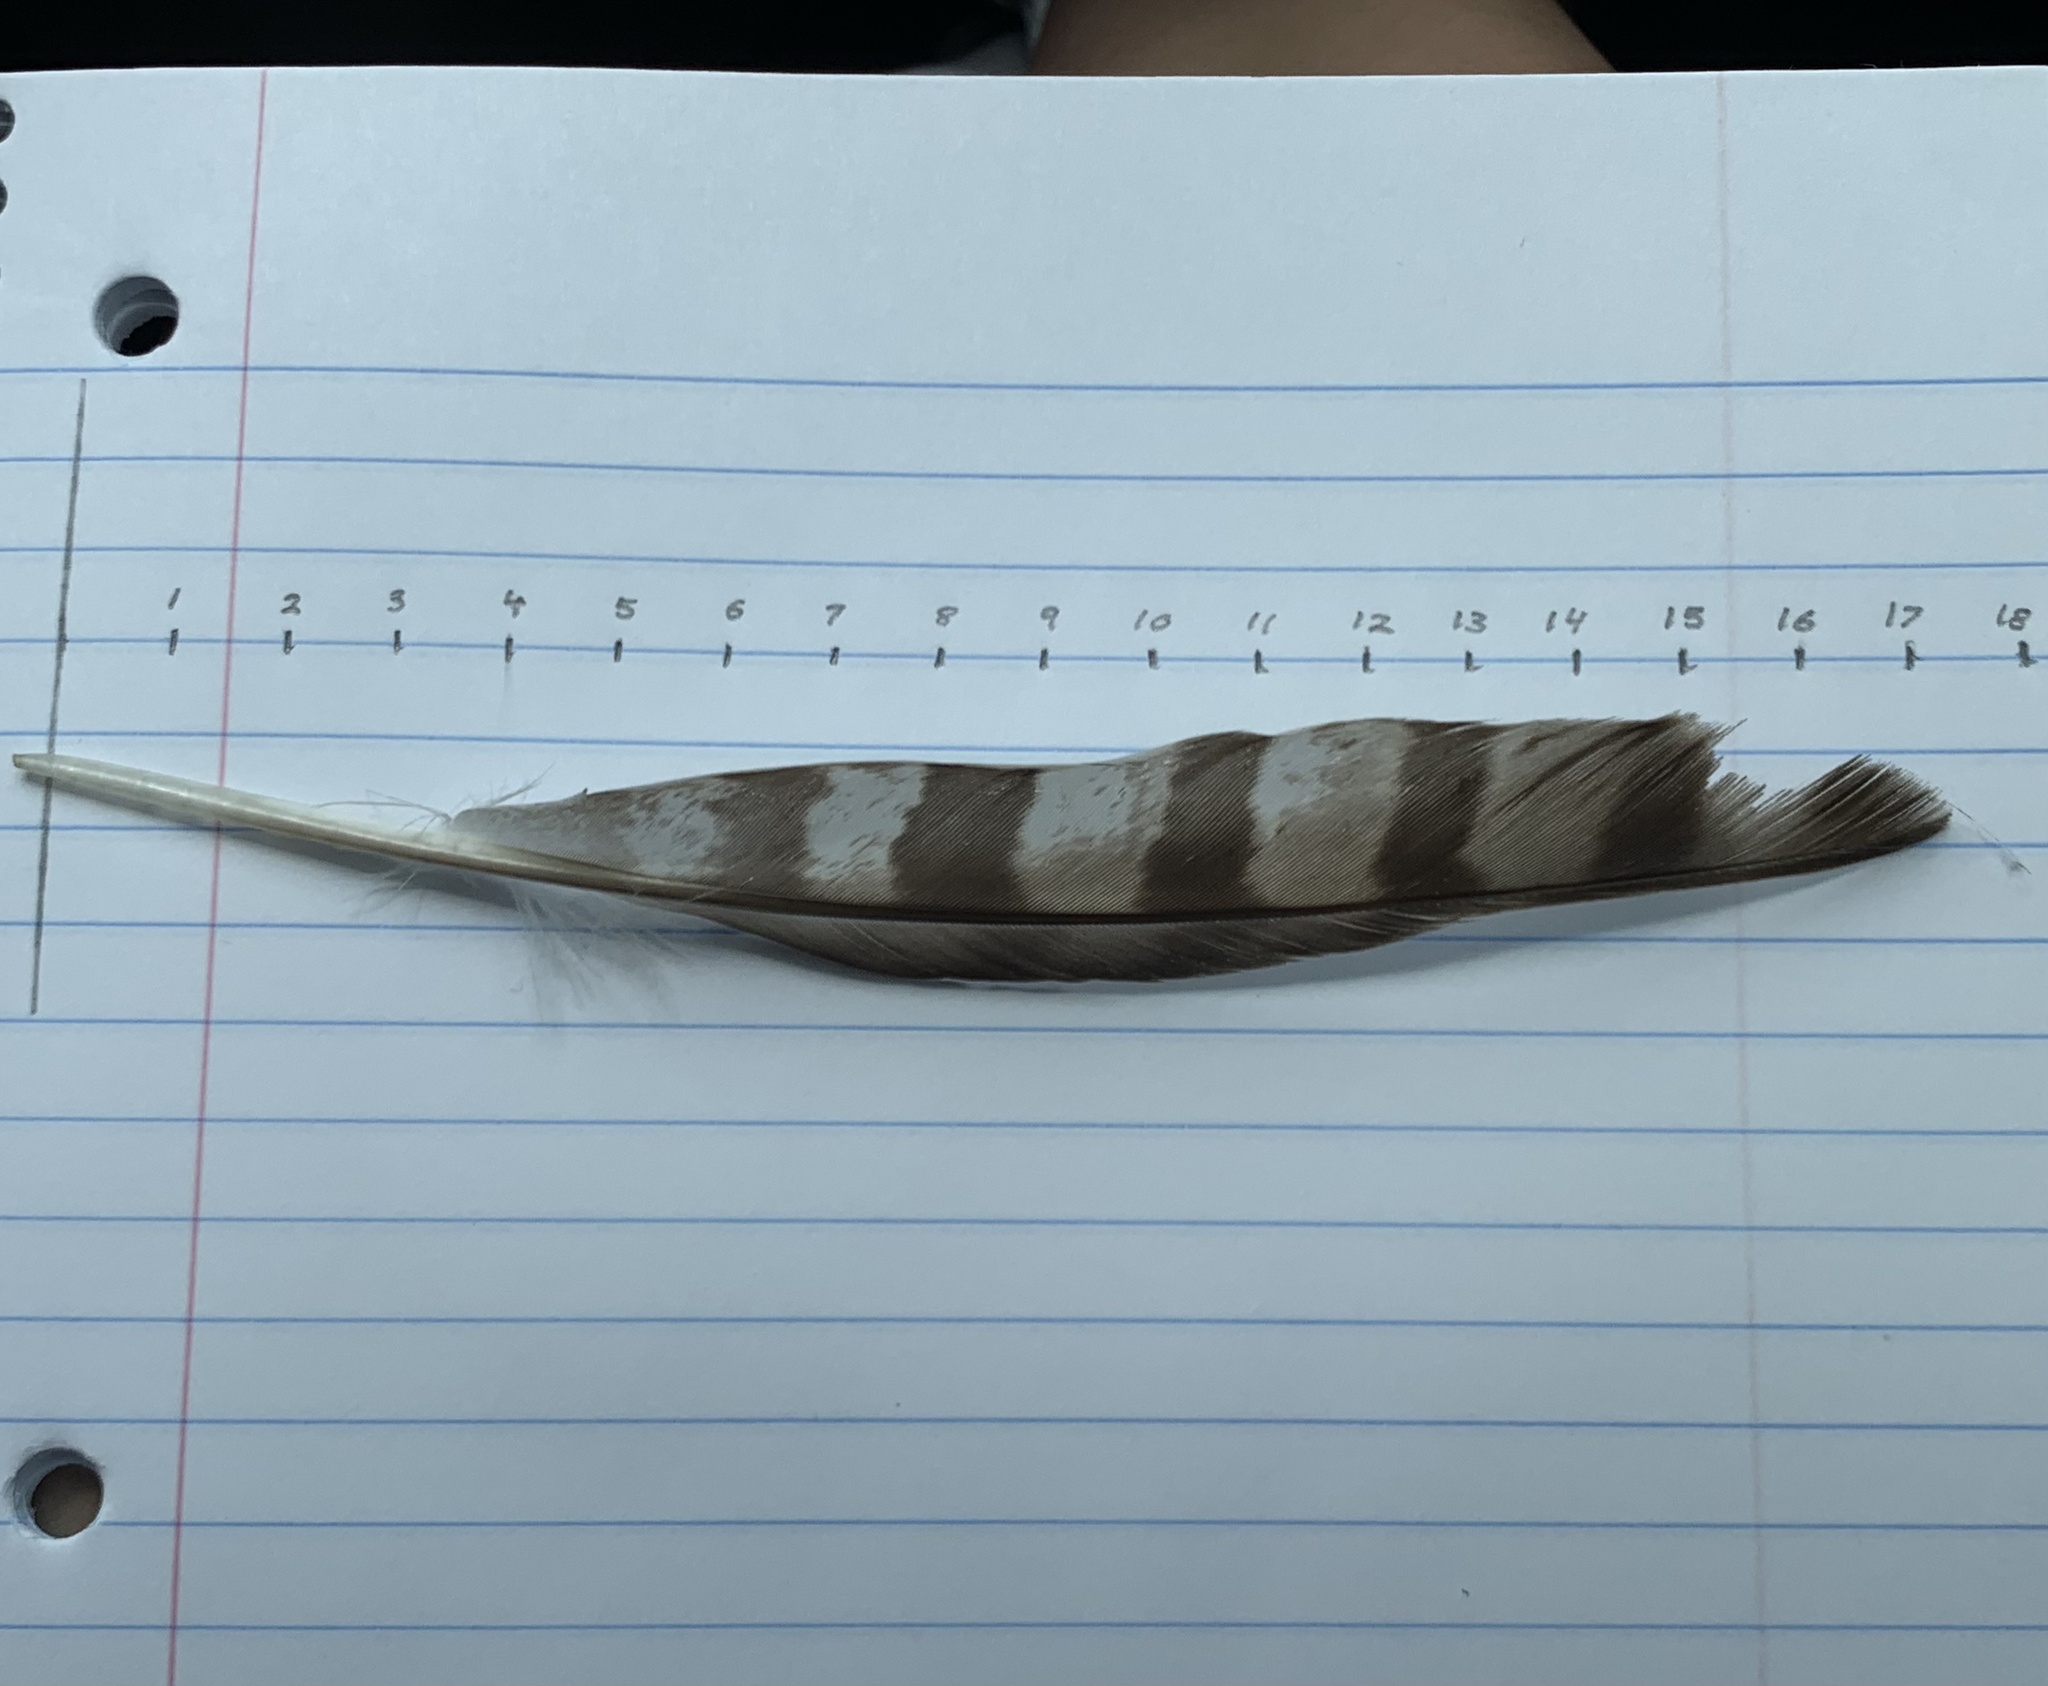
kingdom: Animalia
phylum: Chordata
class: Aves
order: Accipitriformes
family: Accipitridae
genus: Accipiter
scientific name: Accipiter cooperii
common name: Cooper's hawk
